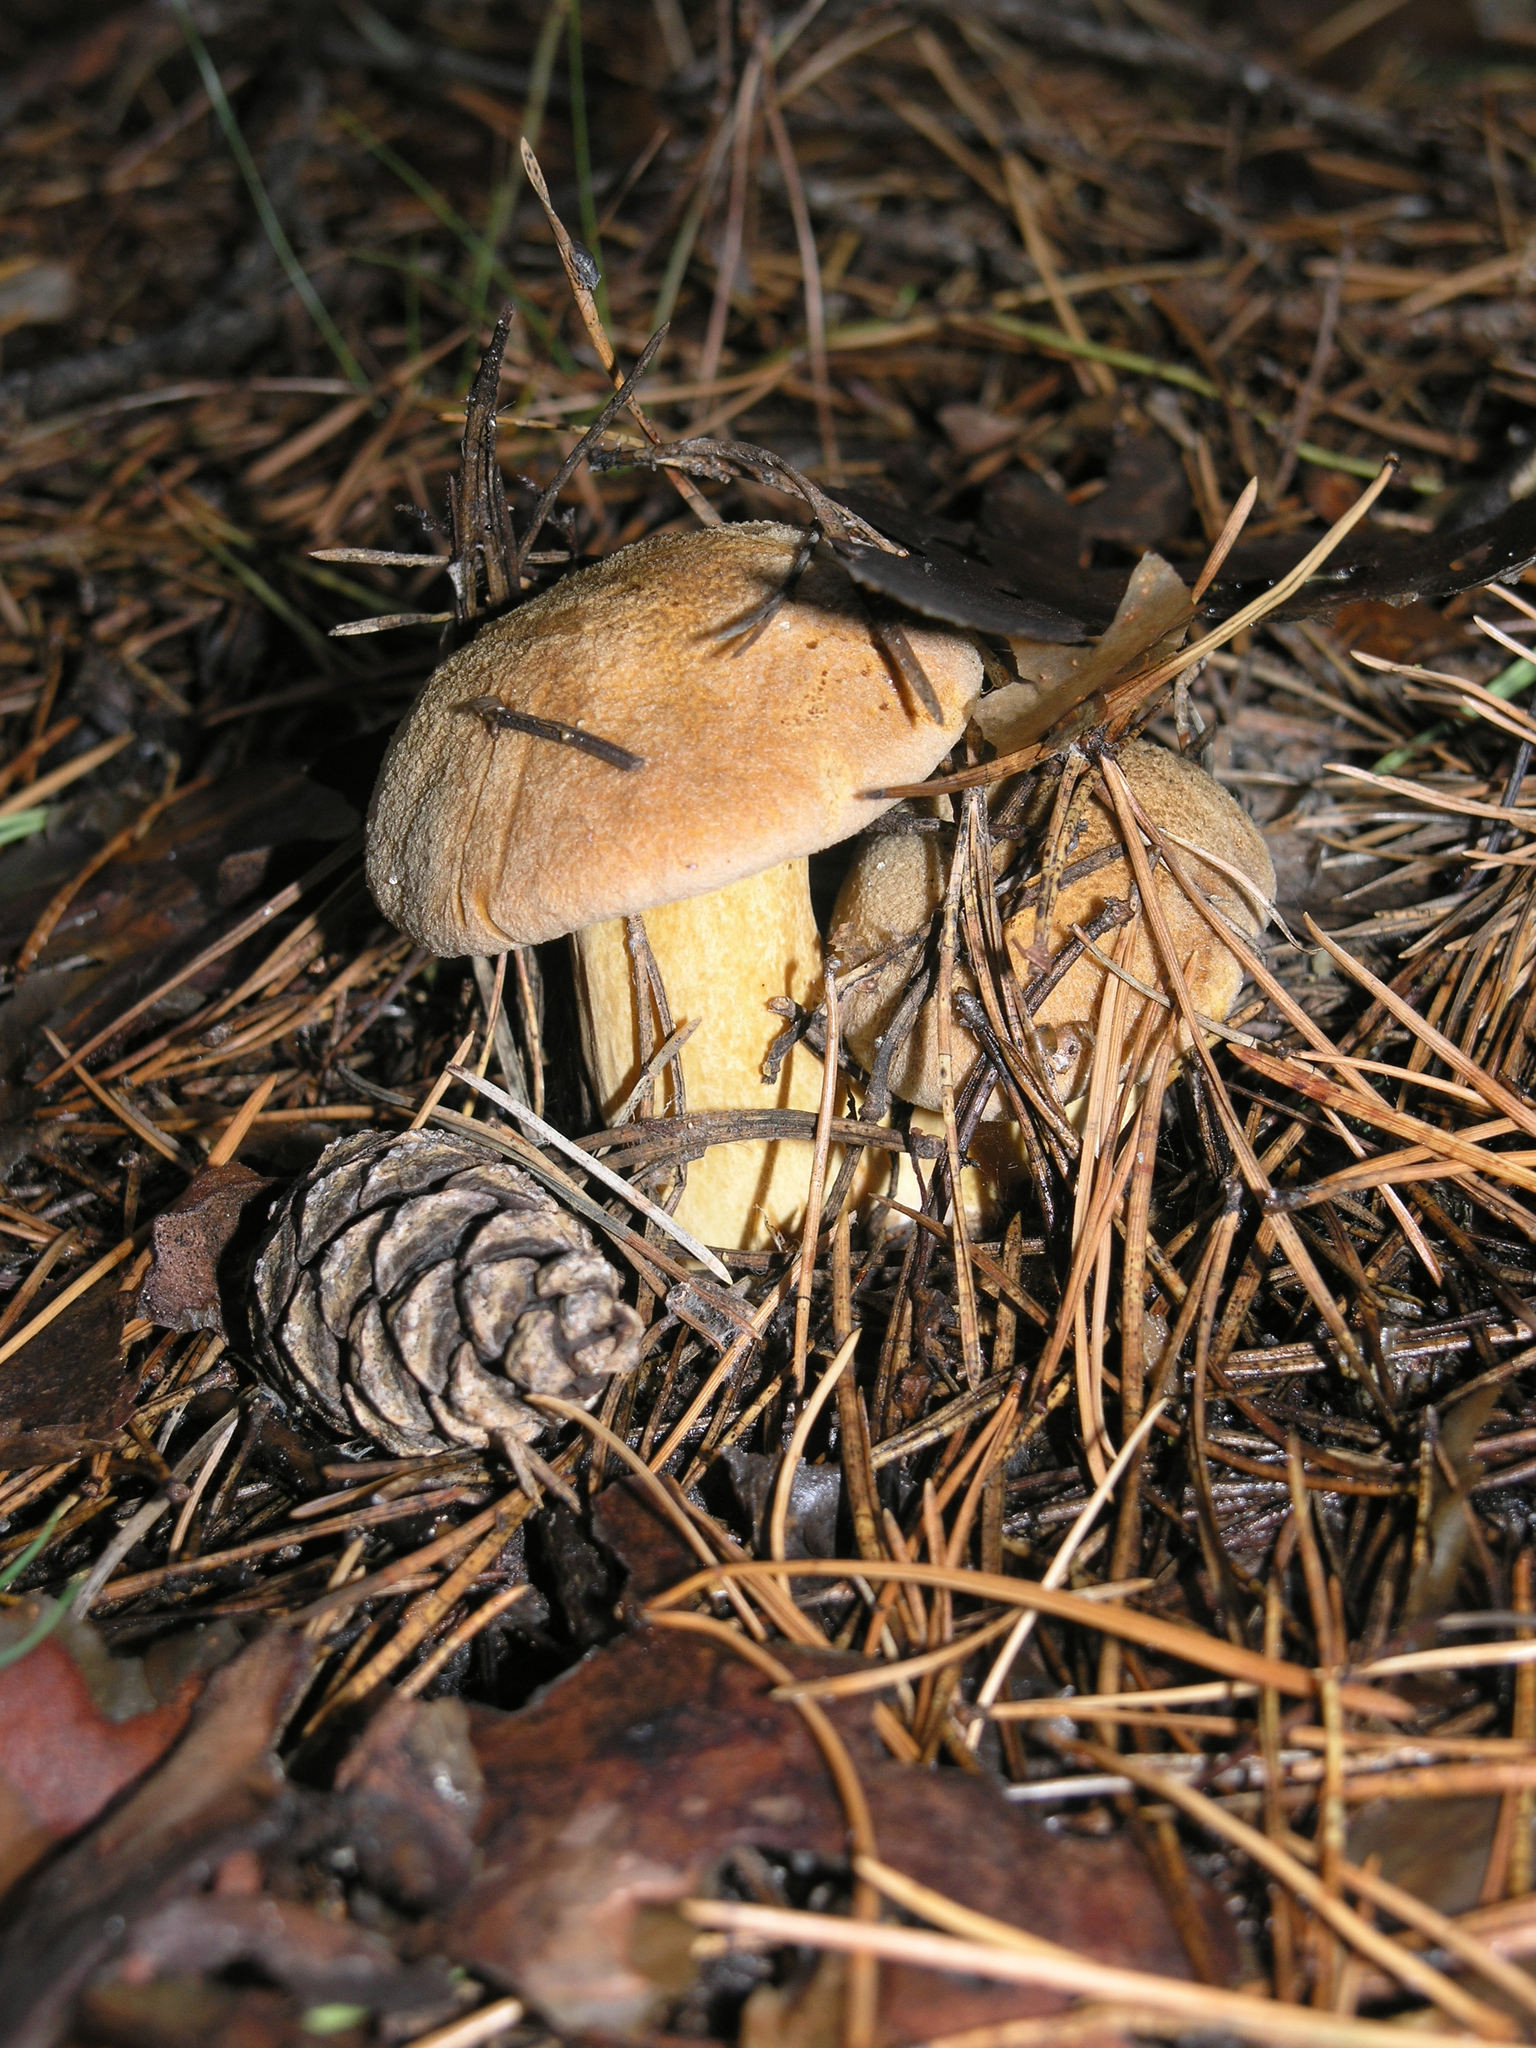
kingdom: Fungi
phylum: Basidiomycota
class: Agaricomycetes
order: Boletales
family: Suillaceae
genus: Suillus
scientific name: Suillus variegatus
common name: Velvet bolete
